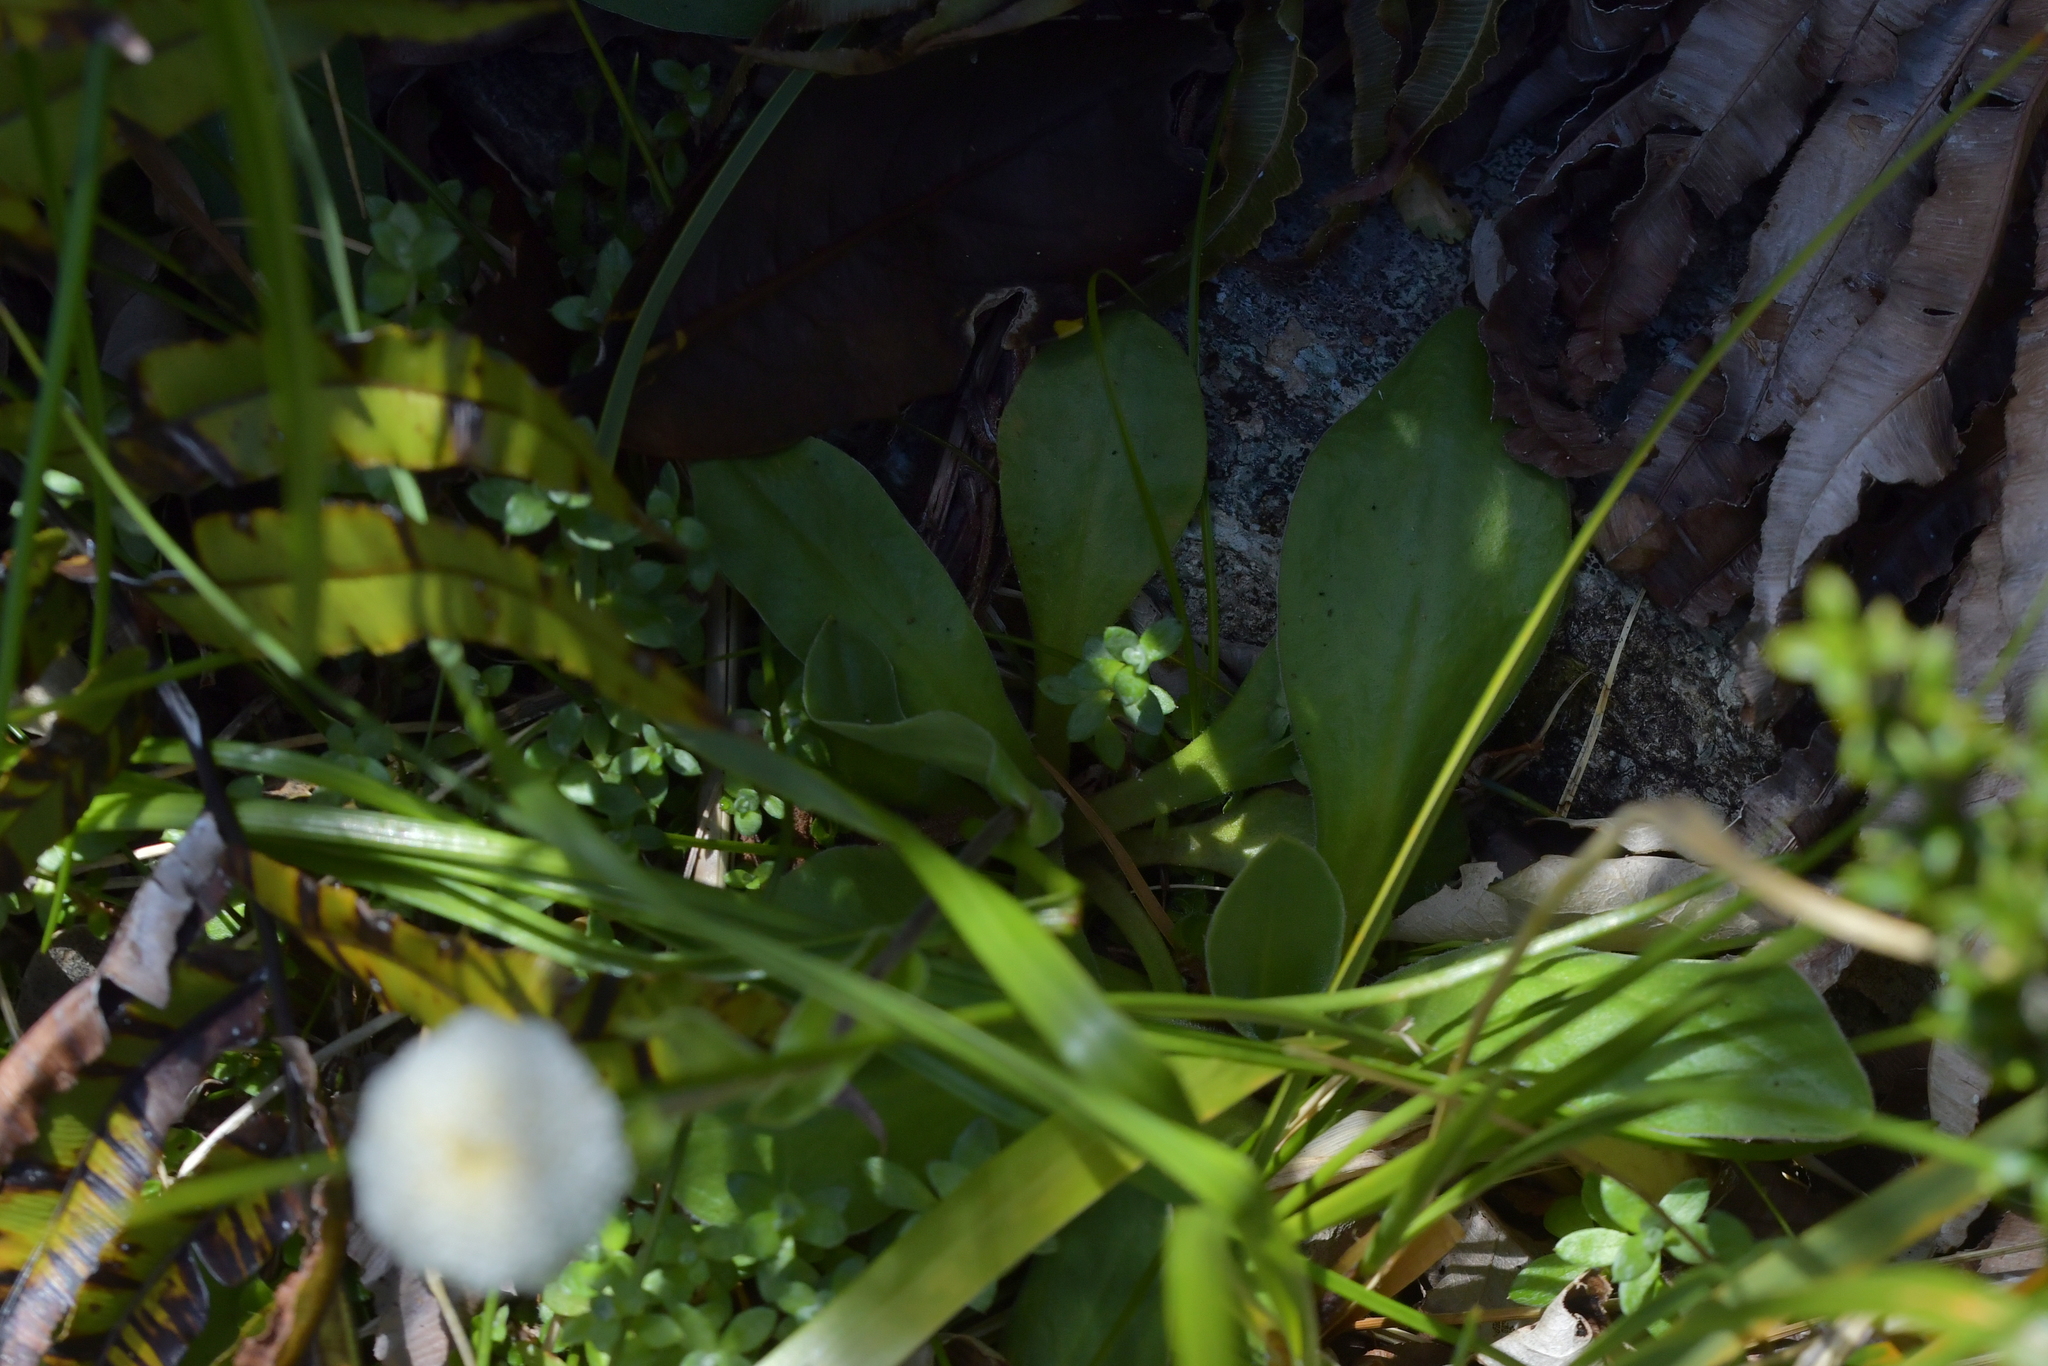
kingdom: Plantae
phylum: Tracheophyta
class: Magnoliopsida
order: Asterales
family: Asteraceae
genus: Craspedia
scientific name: Craspedia uniflora
